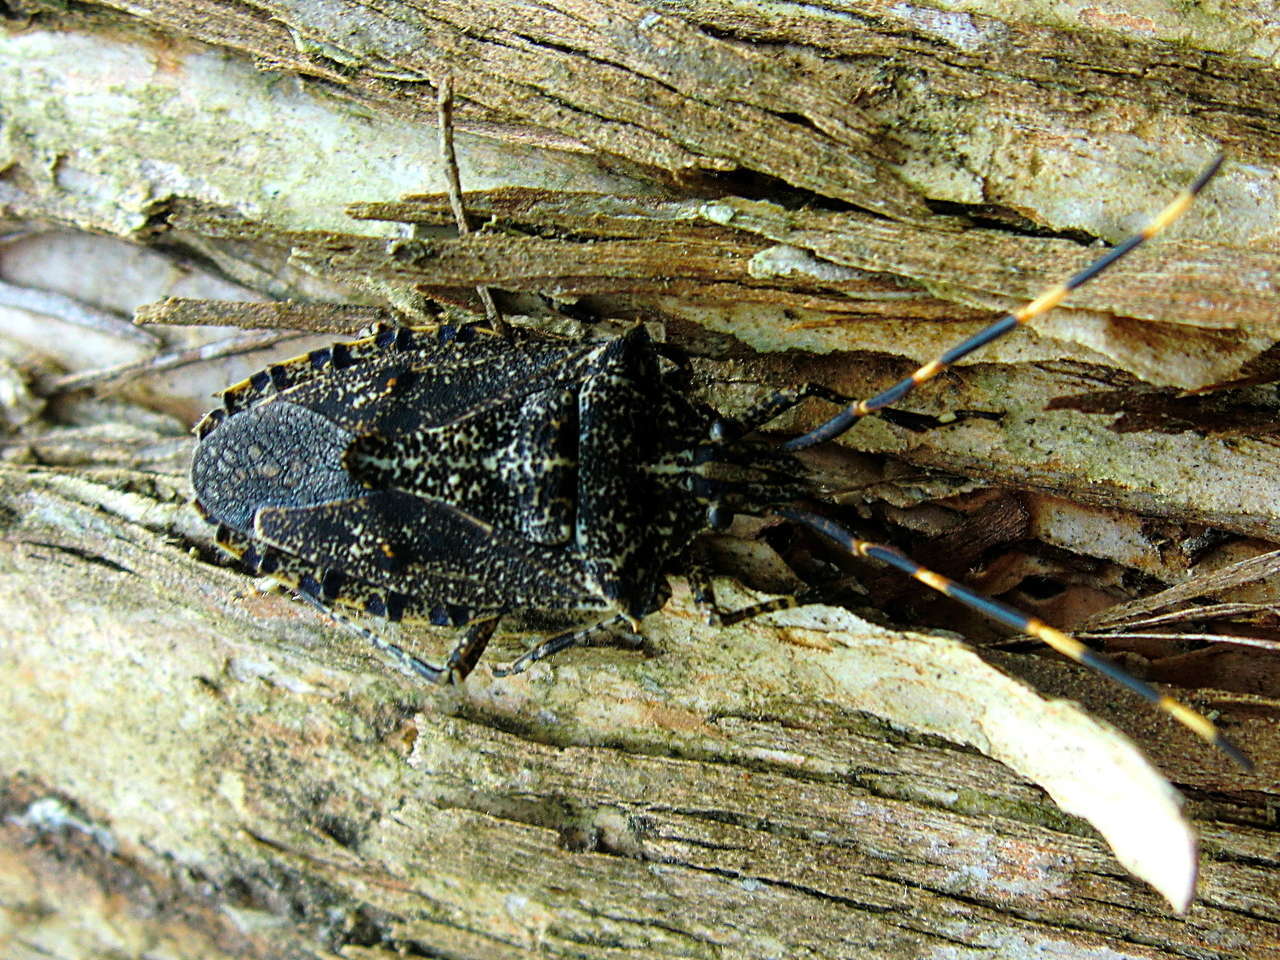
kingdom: Animalia
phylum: Arthropoda
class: Insecta
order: Hemiptera
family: Pentatomidae
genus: Alcaeus
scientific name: Alcaeus
